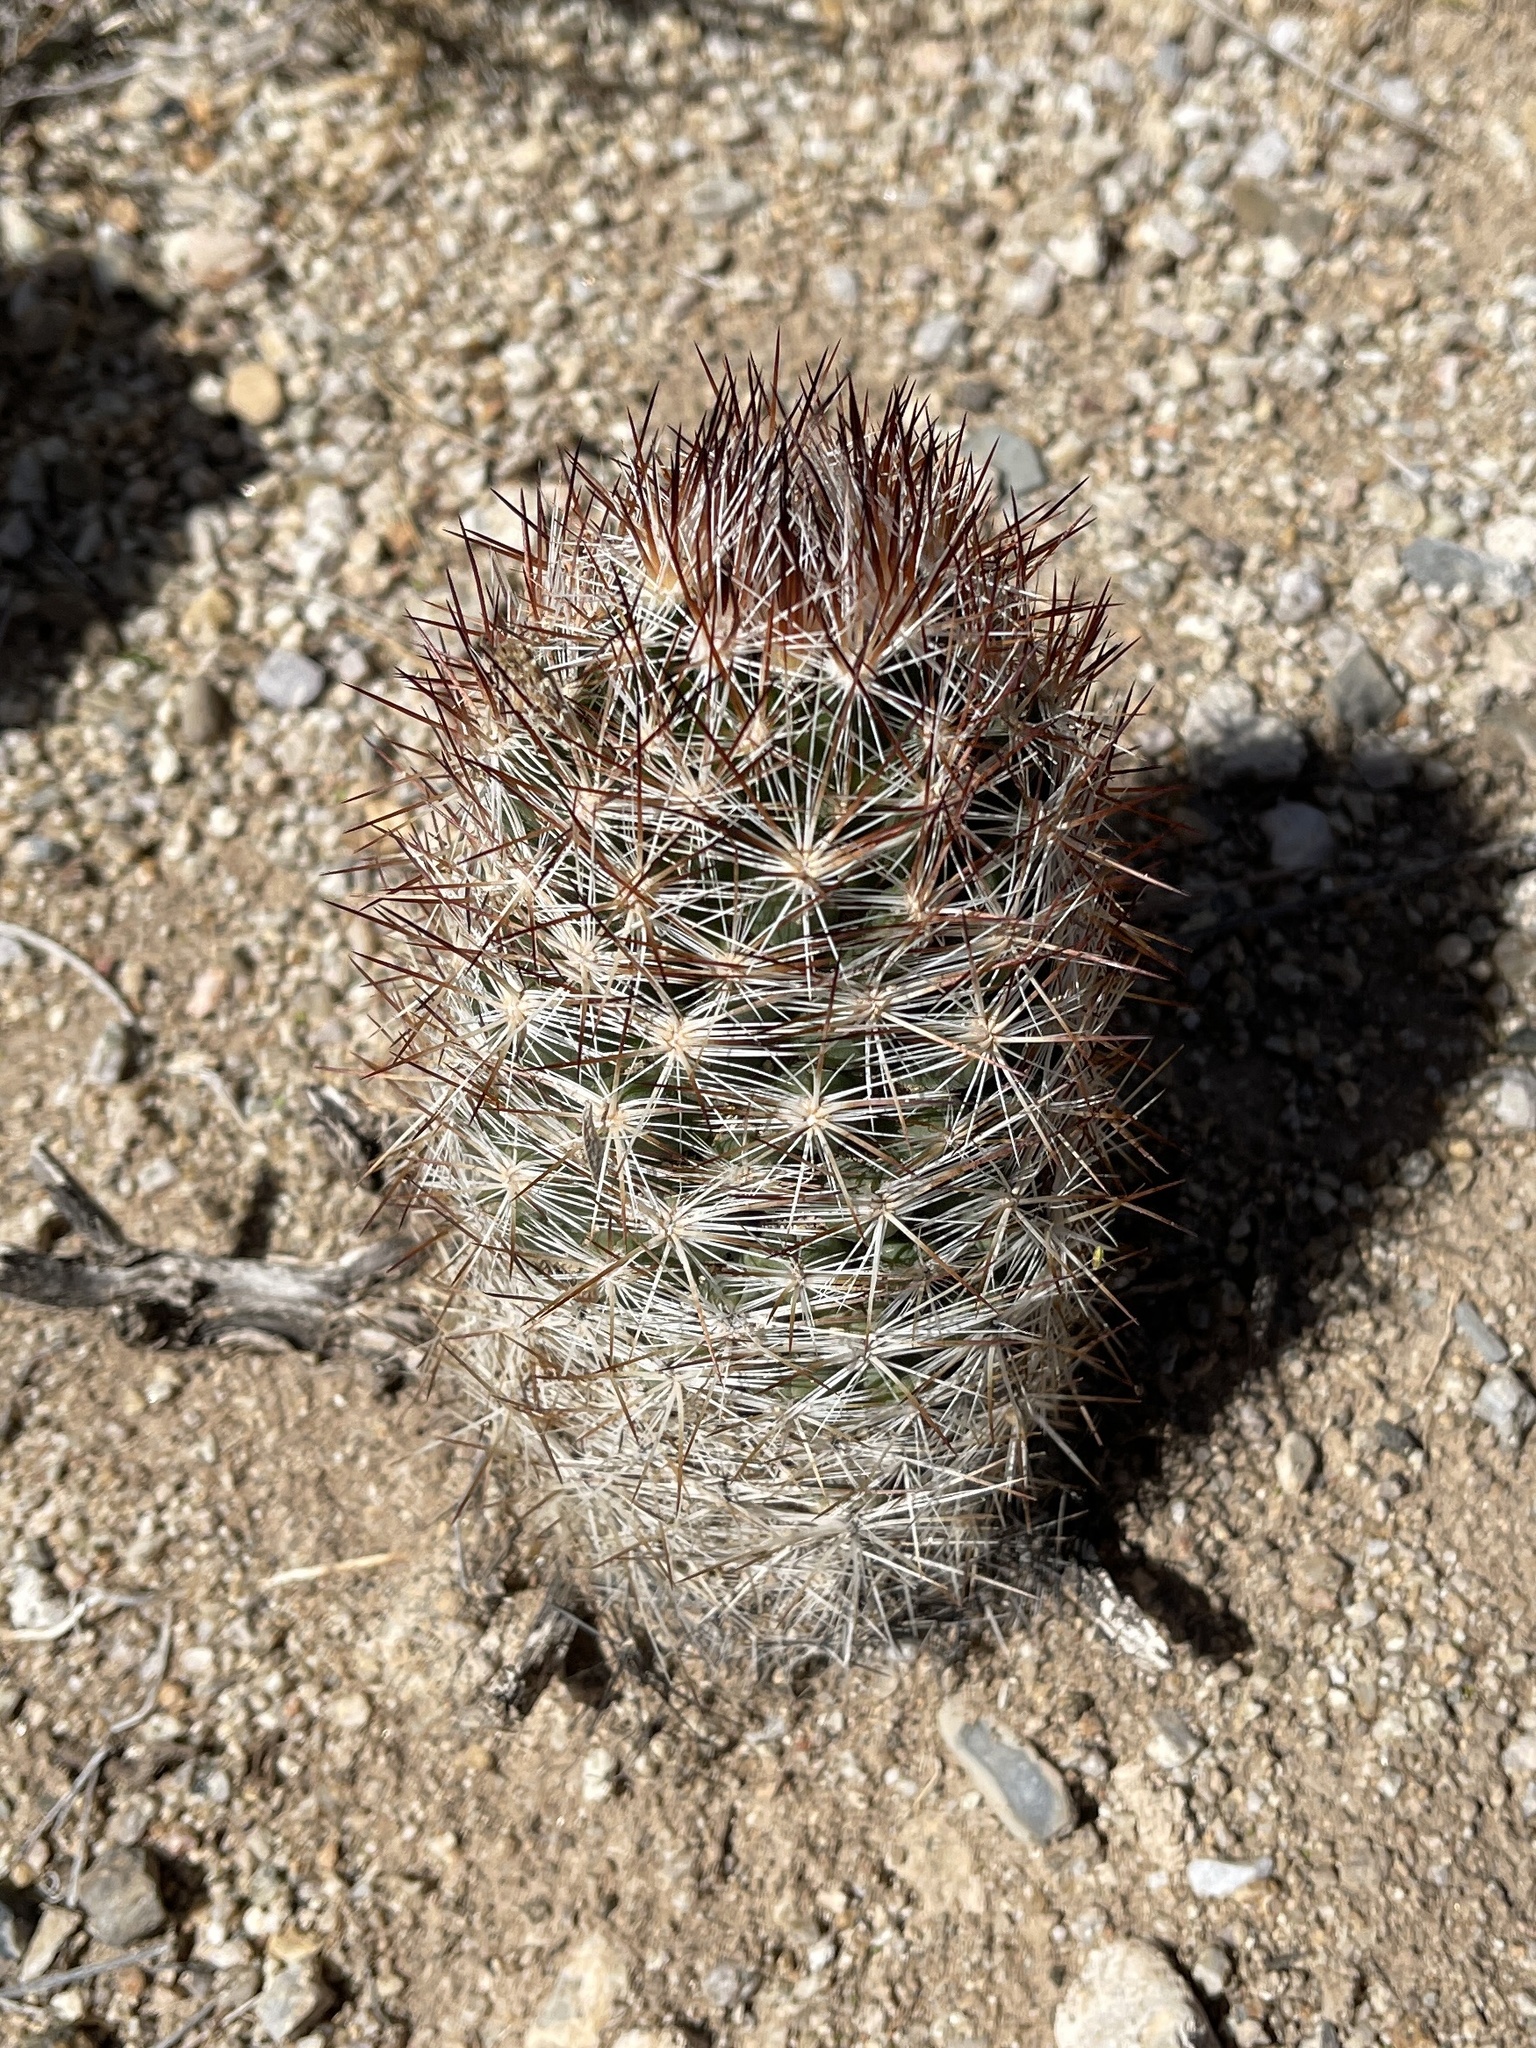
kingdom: Plantae
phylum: Tracheophyta
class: Magnoliopsida
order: Caryophyllales
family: Cactaceae
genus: Pelecyphora
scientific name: Pelecyphora vivipara
